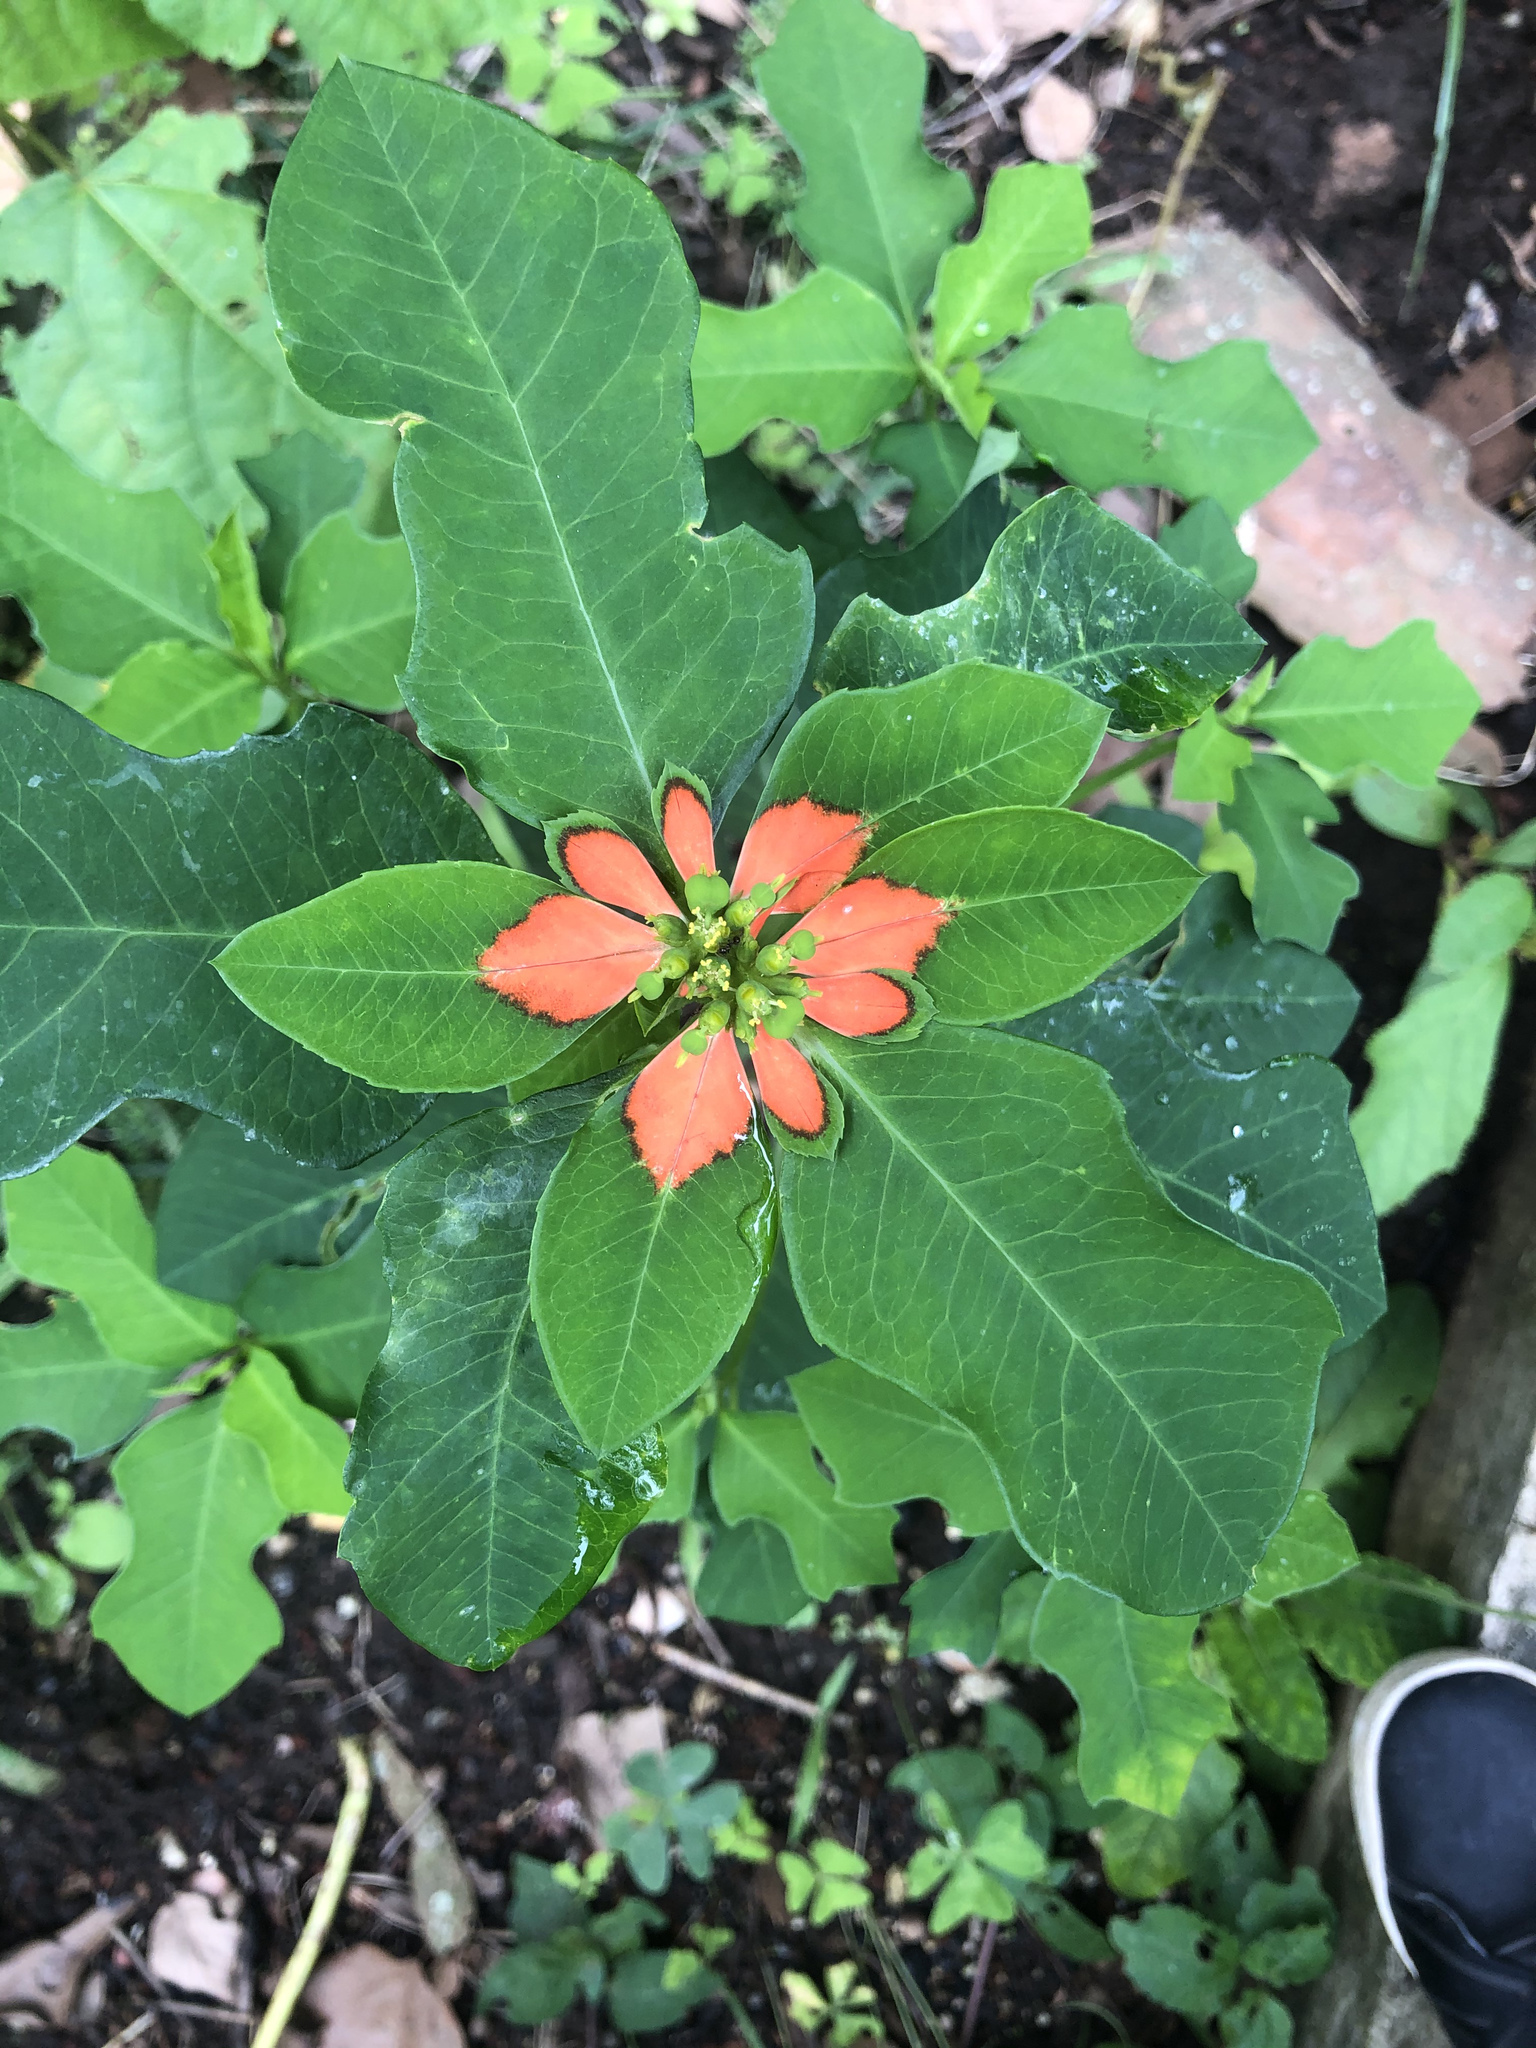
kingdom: Plantae
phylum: Tracheophyta
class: Magnoliopsida
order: Malpighiales
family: Euphorbiaceae
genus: Euphorbia
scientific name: Euphorbia heterophylla
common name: Mexican fireplant
